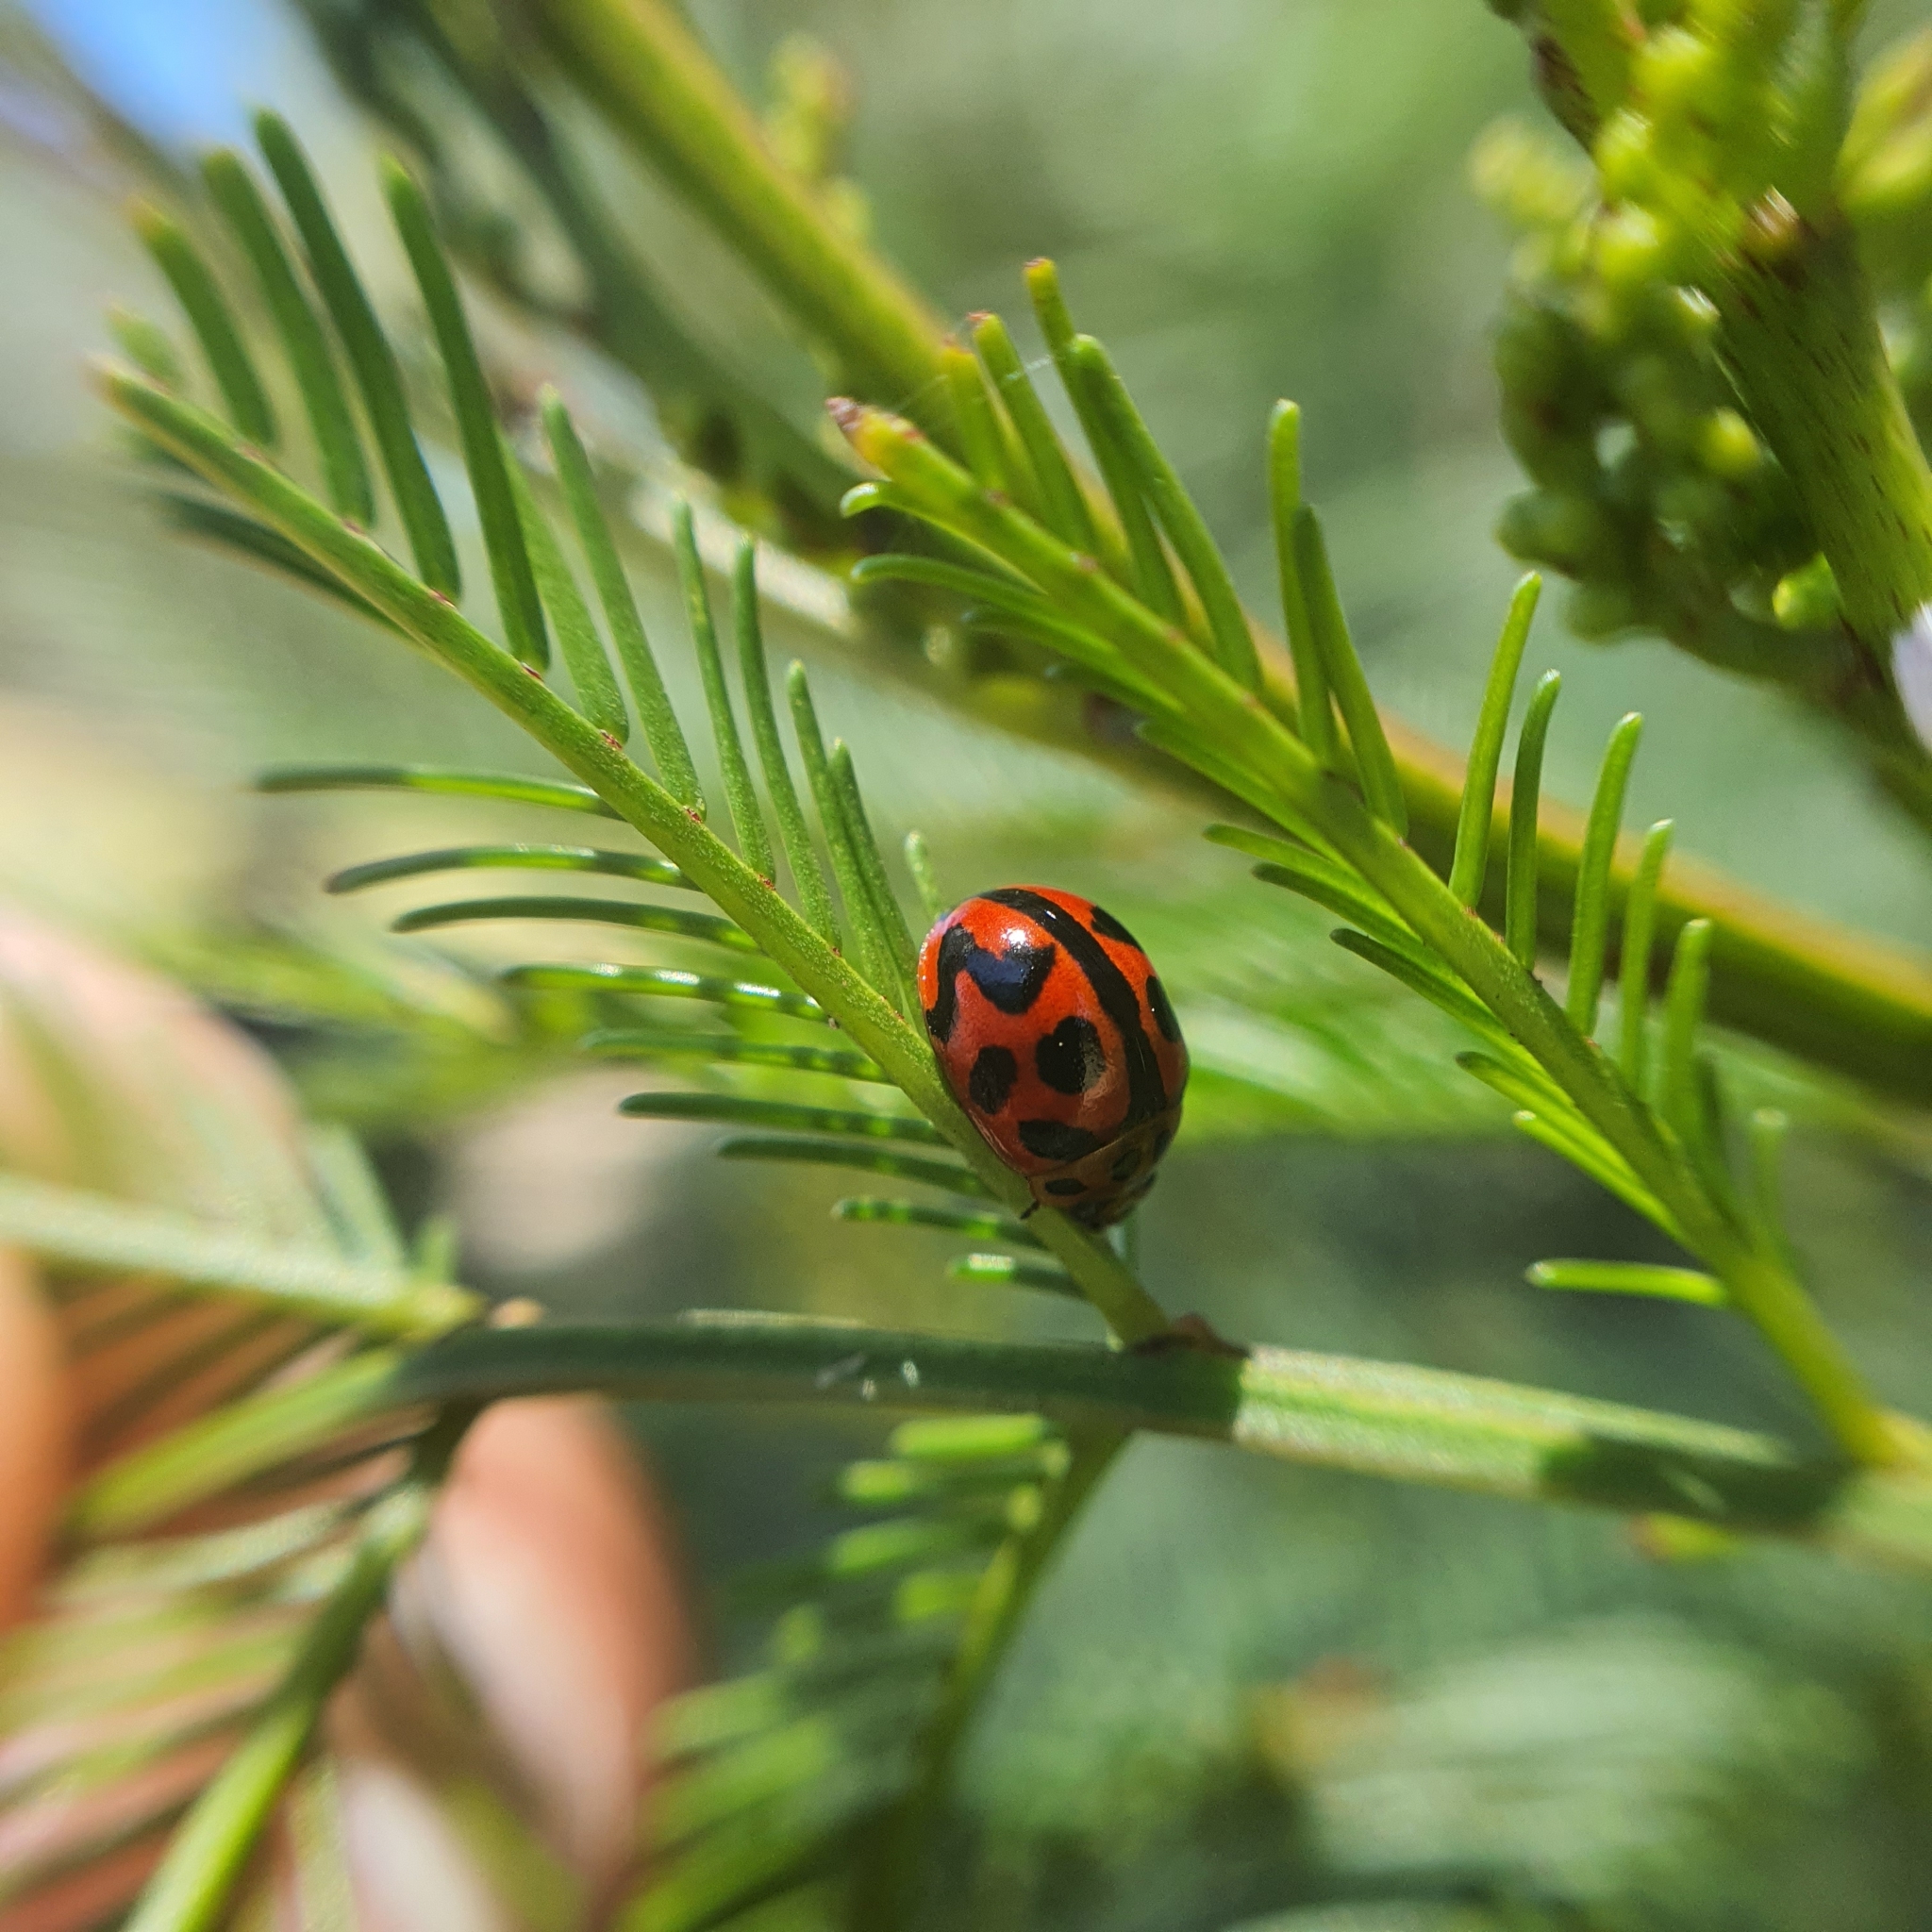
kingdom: Animalia
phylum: Arthropoda
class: Insecta
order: Coleoptera
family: Chrysomelidae
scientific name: Chrysomelidae
